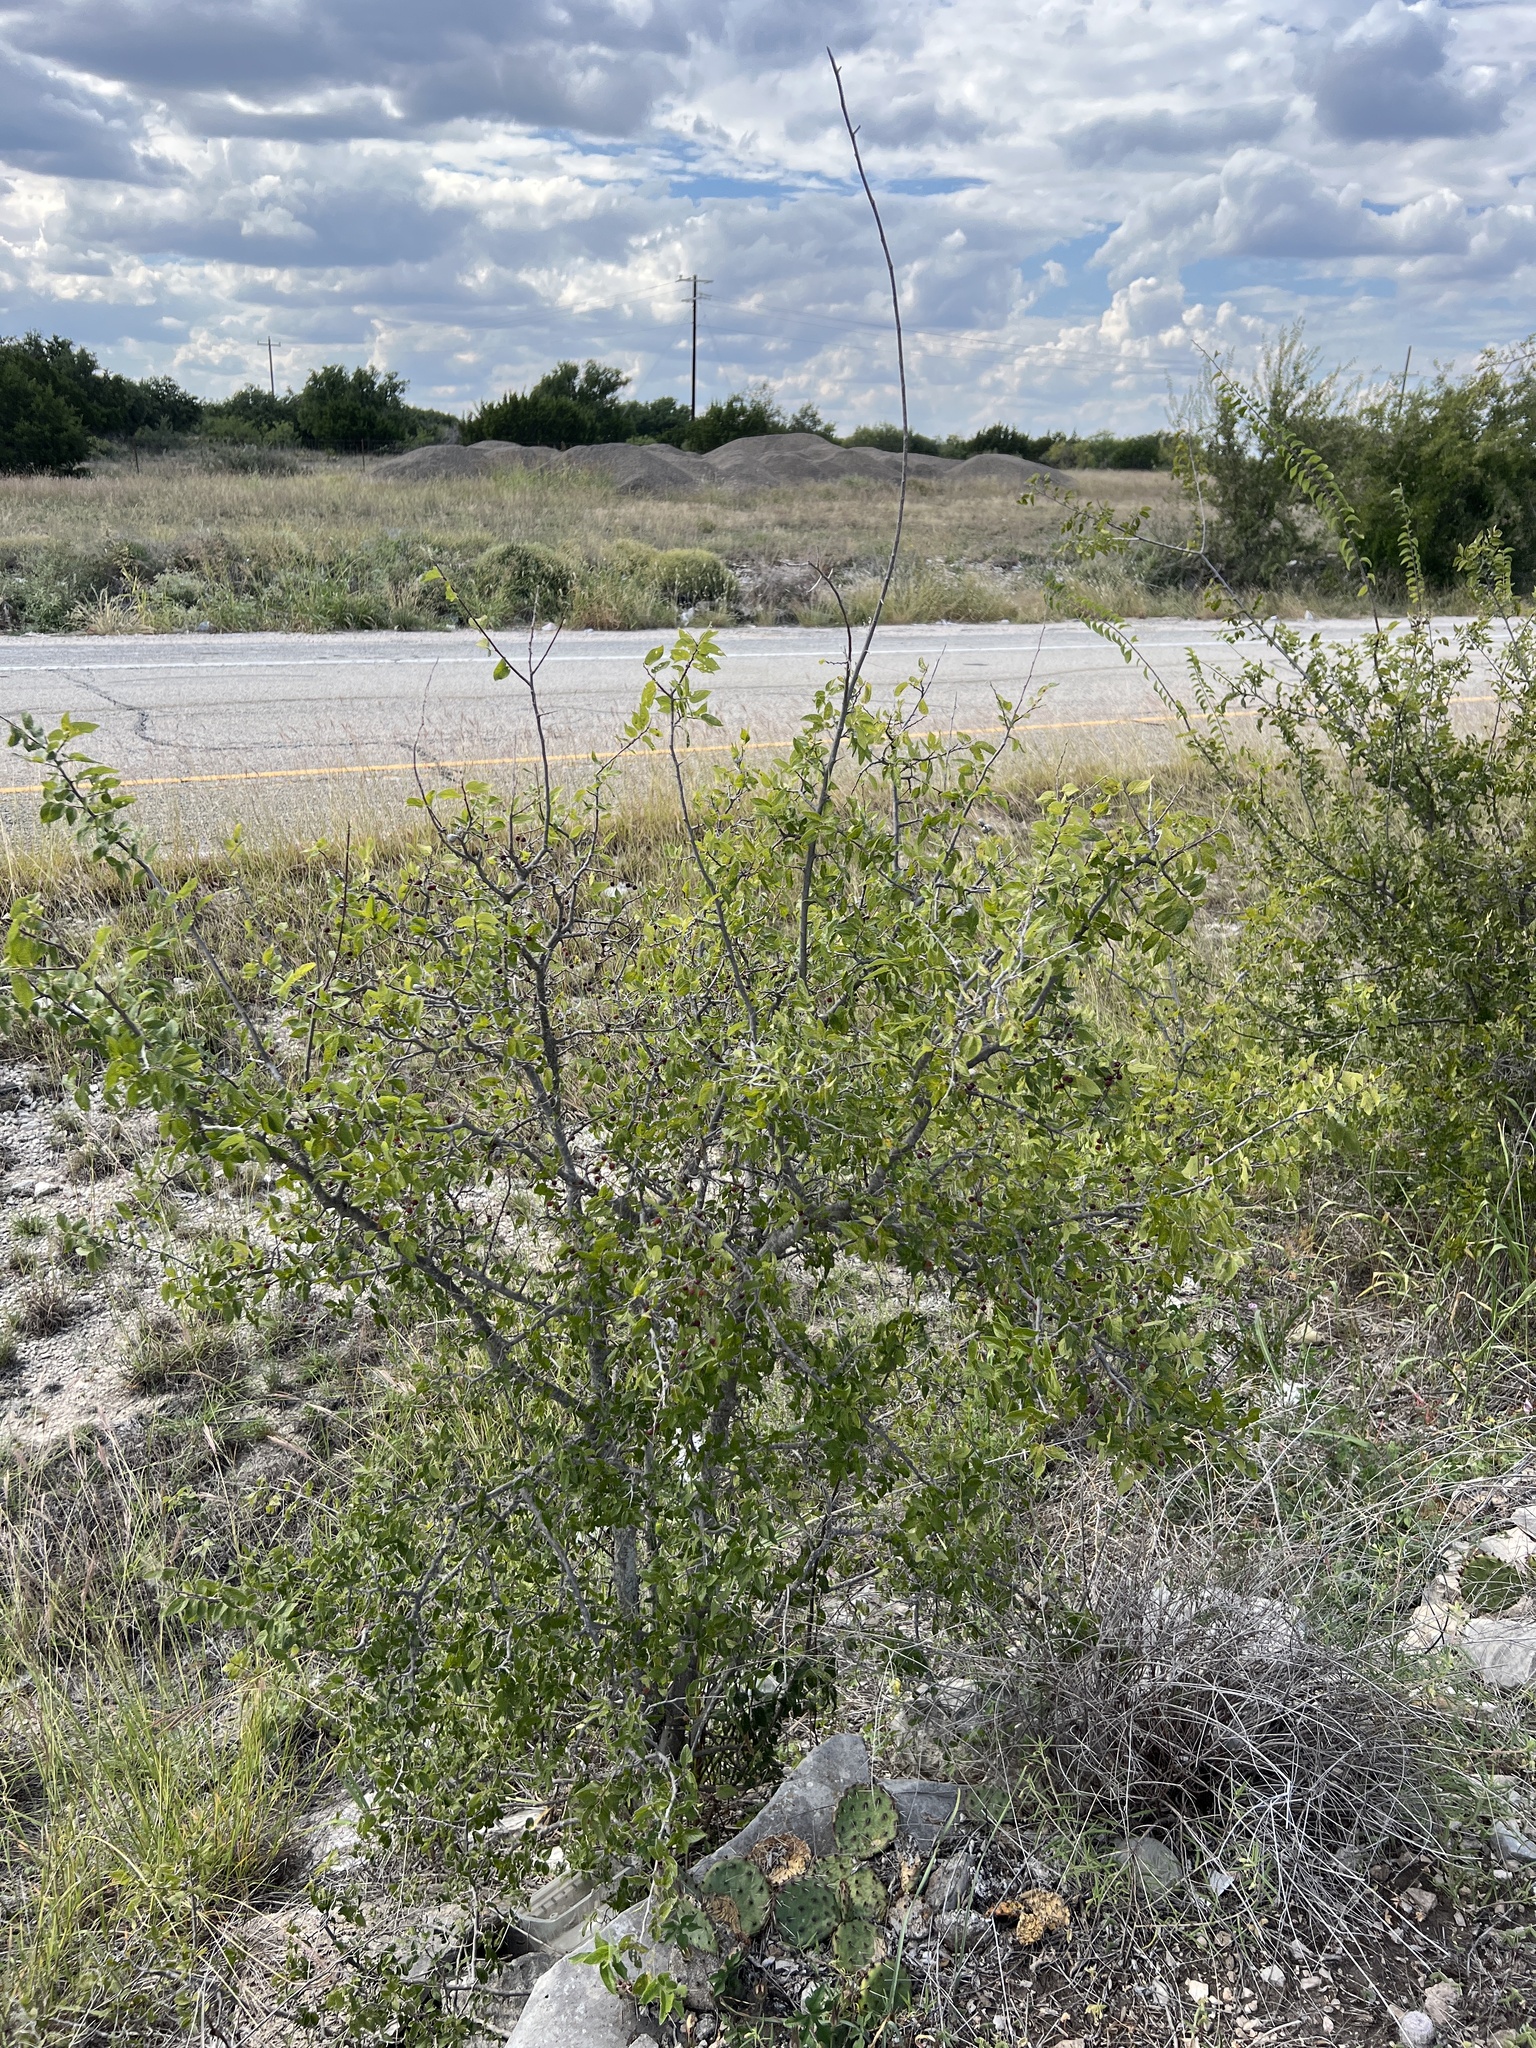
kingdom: Plantae
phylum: Tracheophyta
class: Magnoliopsida
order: Rosales
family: Cannabaceae
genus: Celtis
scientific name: Celtis reticulata
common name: Netleaf hackberry
